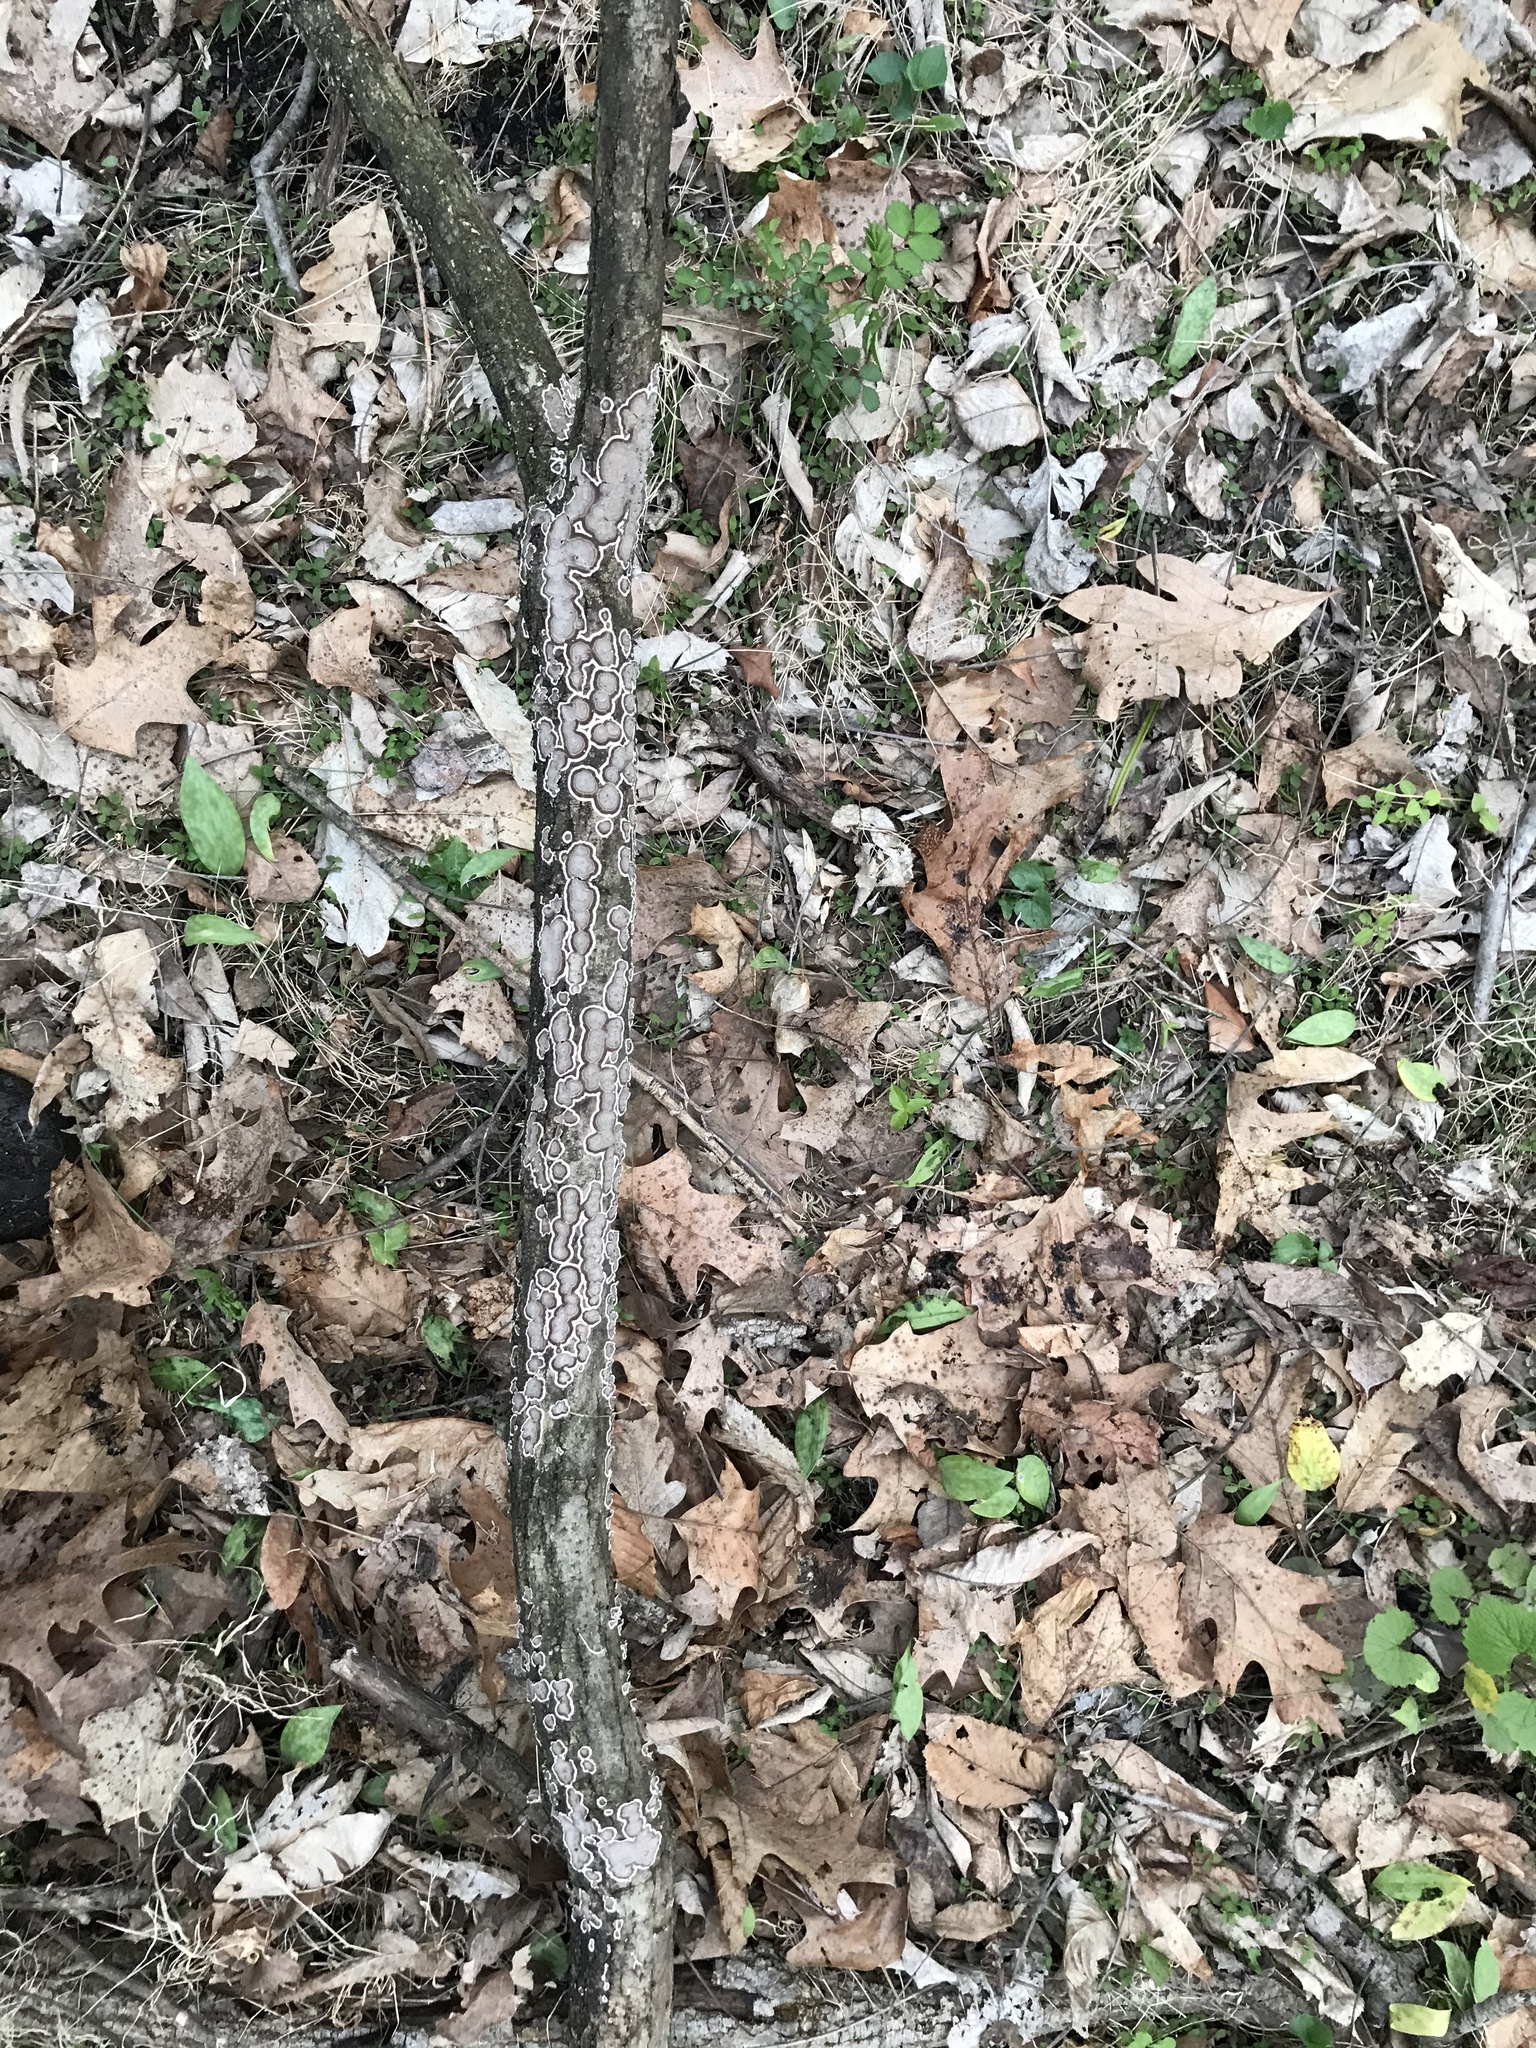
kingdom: Fungi
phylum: Basidiomycota
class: Agaricomycetes
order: Russulales
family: Peniophoraceae
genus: Peniophora
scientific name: Peniophora albobadia
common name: Giraffe spots
